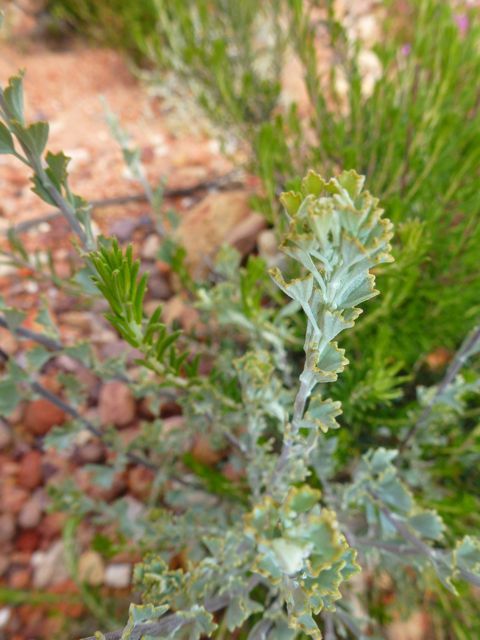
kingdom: Plantae
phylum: Tracheophyta
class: Magnoliopsida
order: Asterales
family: Asteraceae
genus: Pentzia
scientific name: Pentzia dentata
